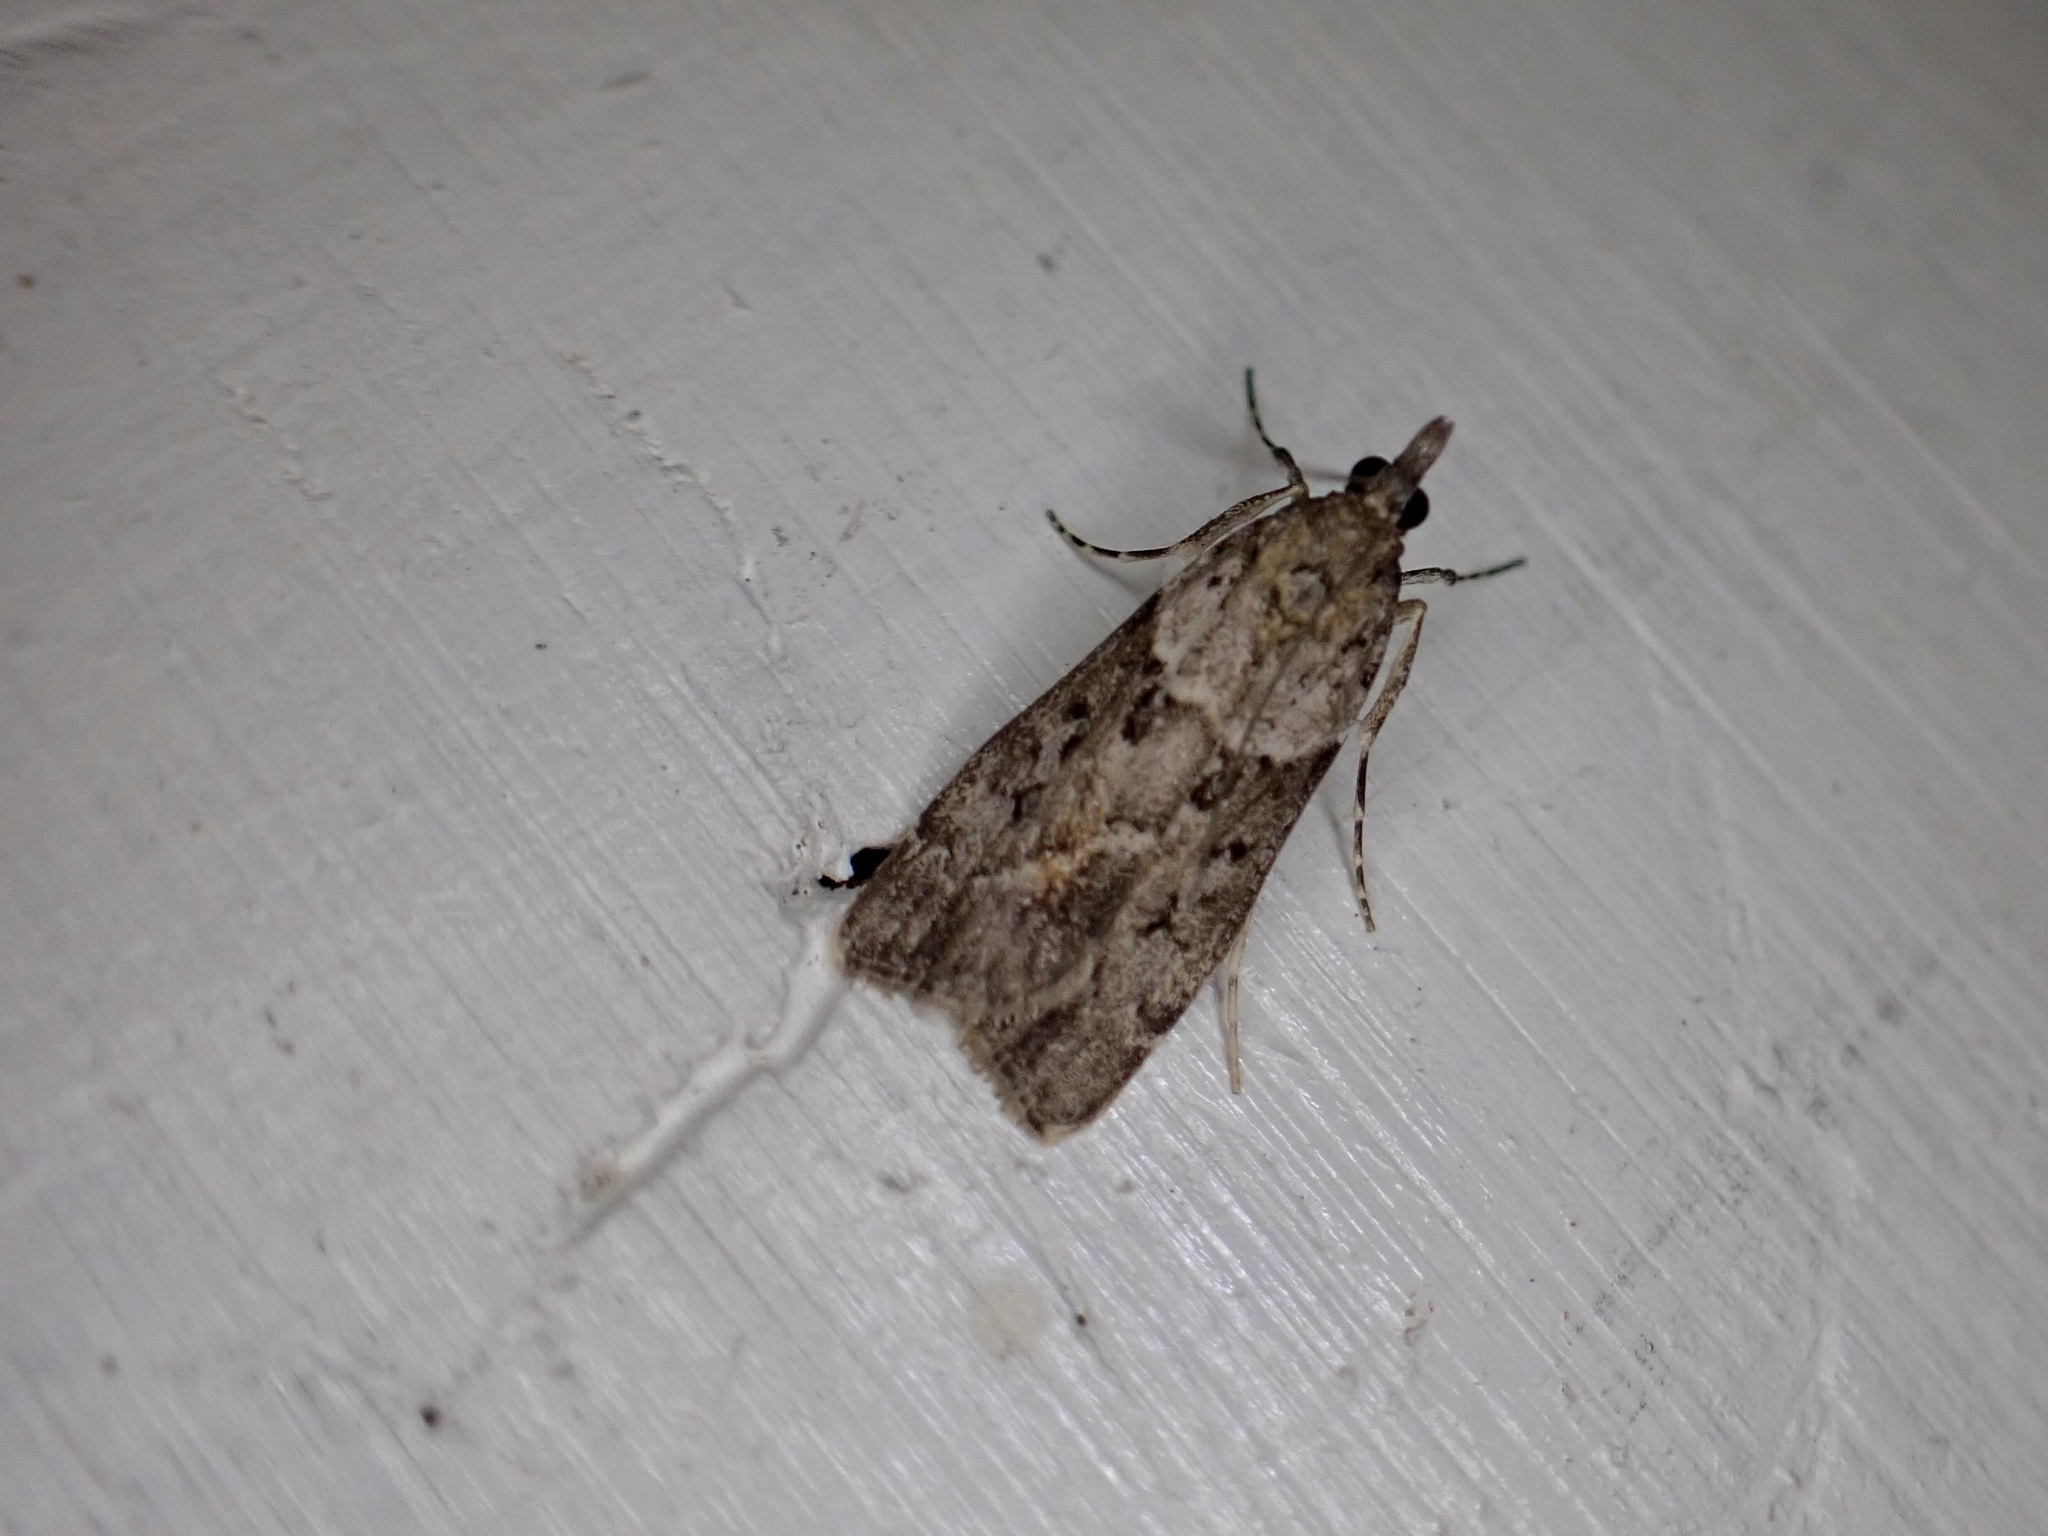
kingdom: Animalia
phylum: Arthropoda
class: Insecta
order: Lepidoptera
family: Crambidae
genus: Eudonia
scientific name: Eudonia submarginalis
